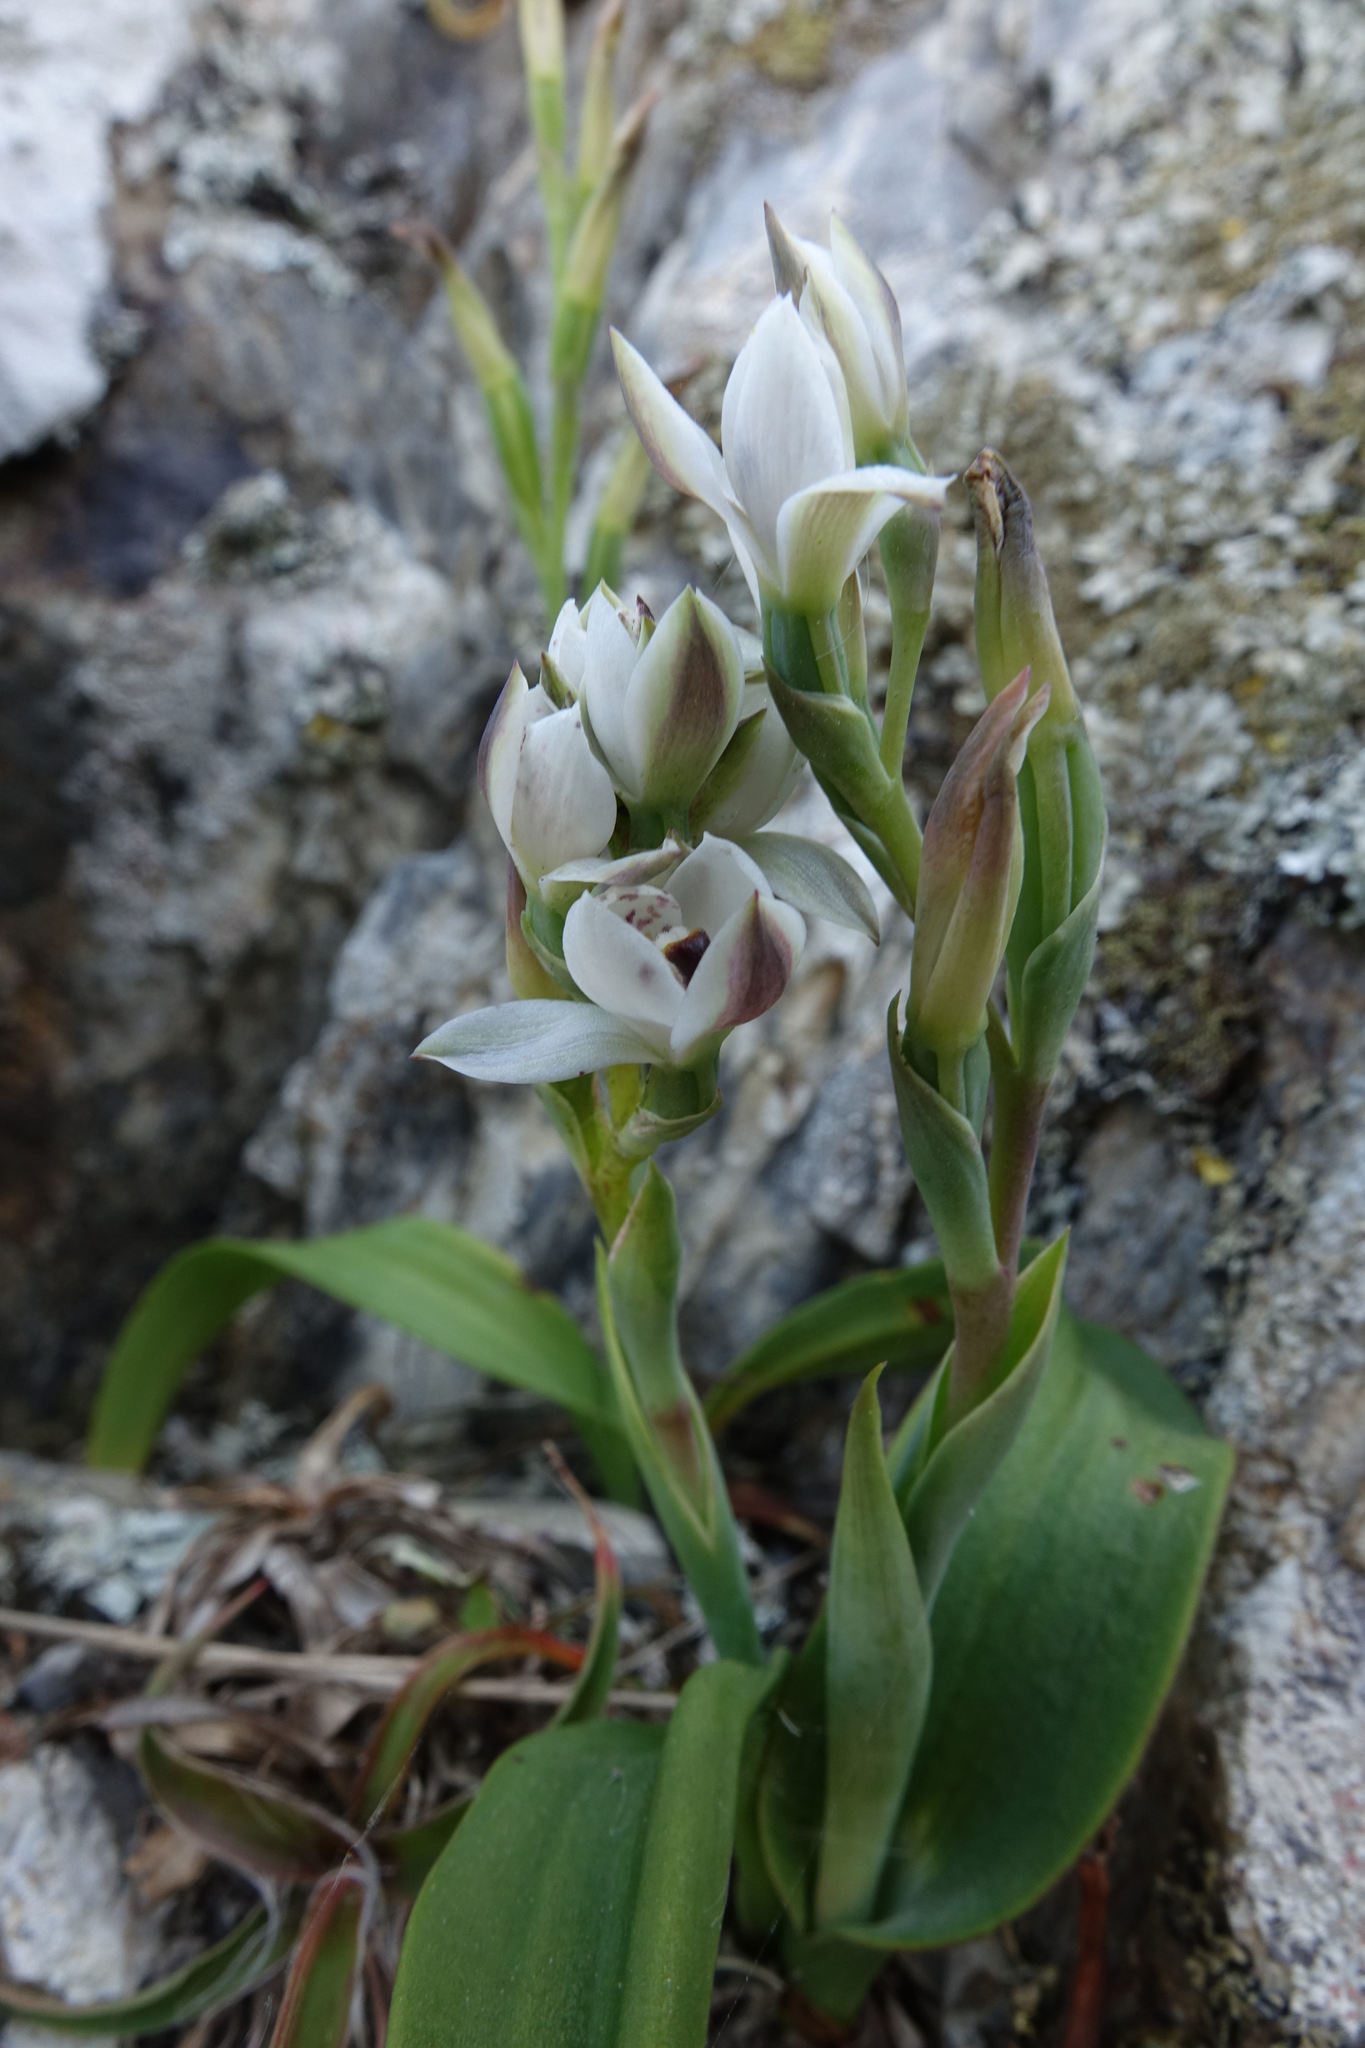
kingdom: Plantae
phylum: Tracheophyta
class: Liliopsida
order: Asparagales
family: Orchidaceae
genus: Thelymitra
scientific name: Thelymitra longifolia
